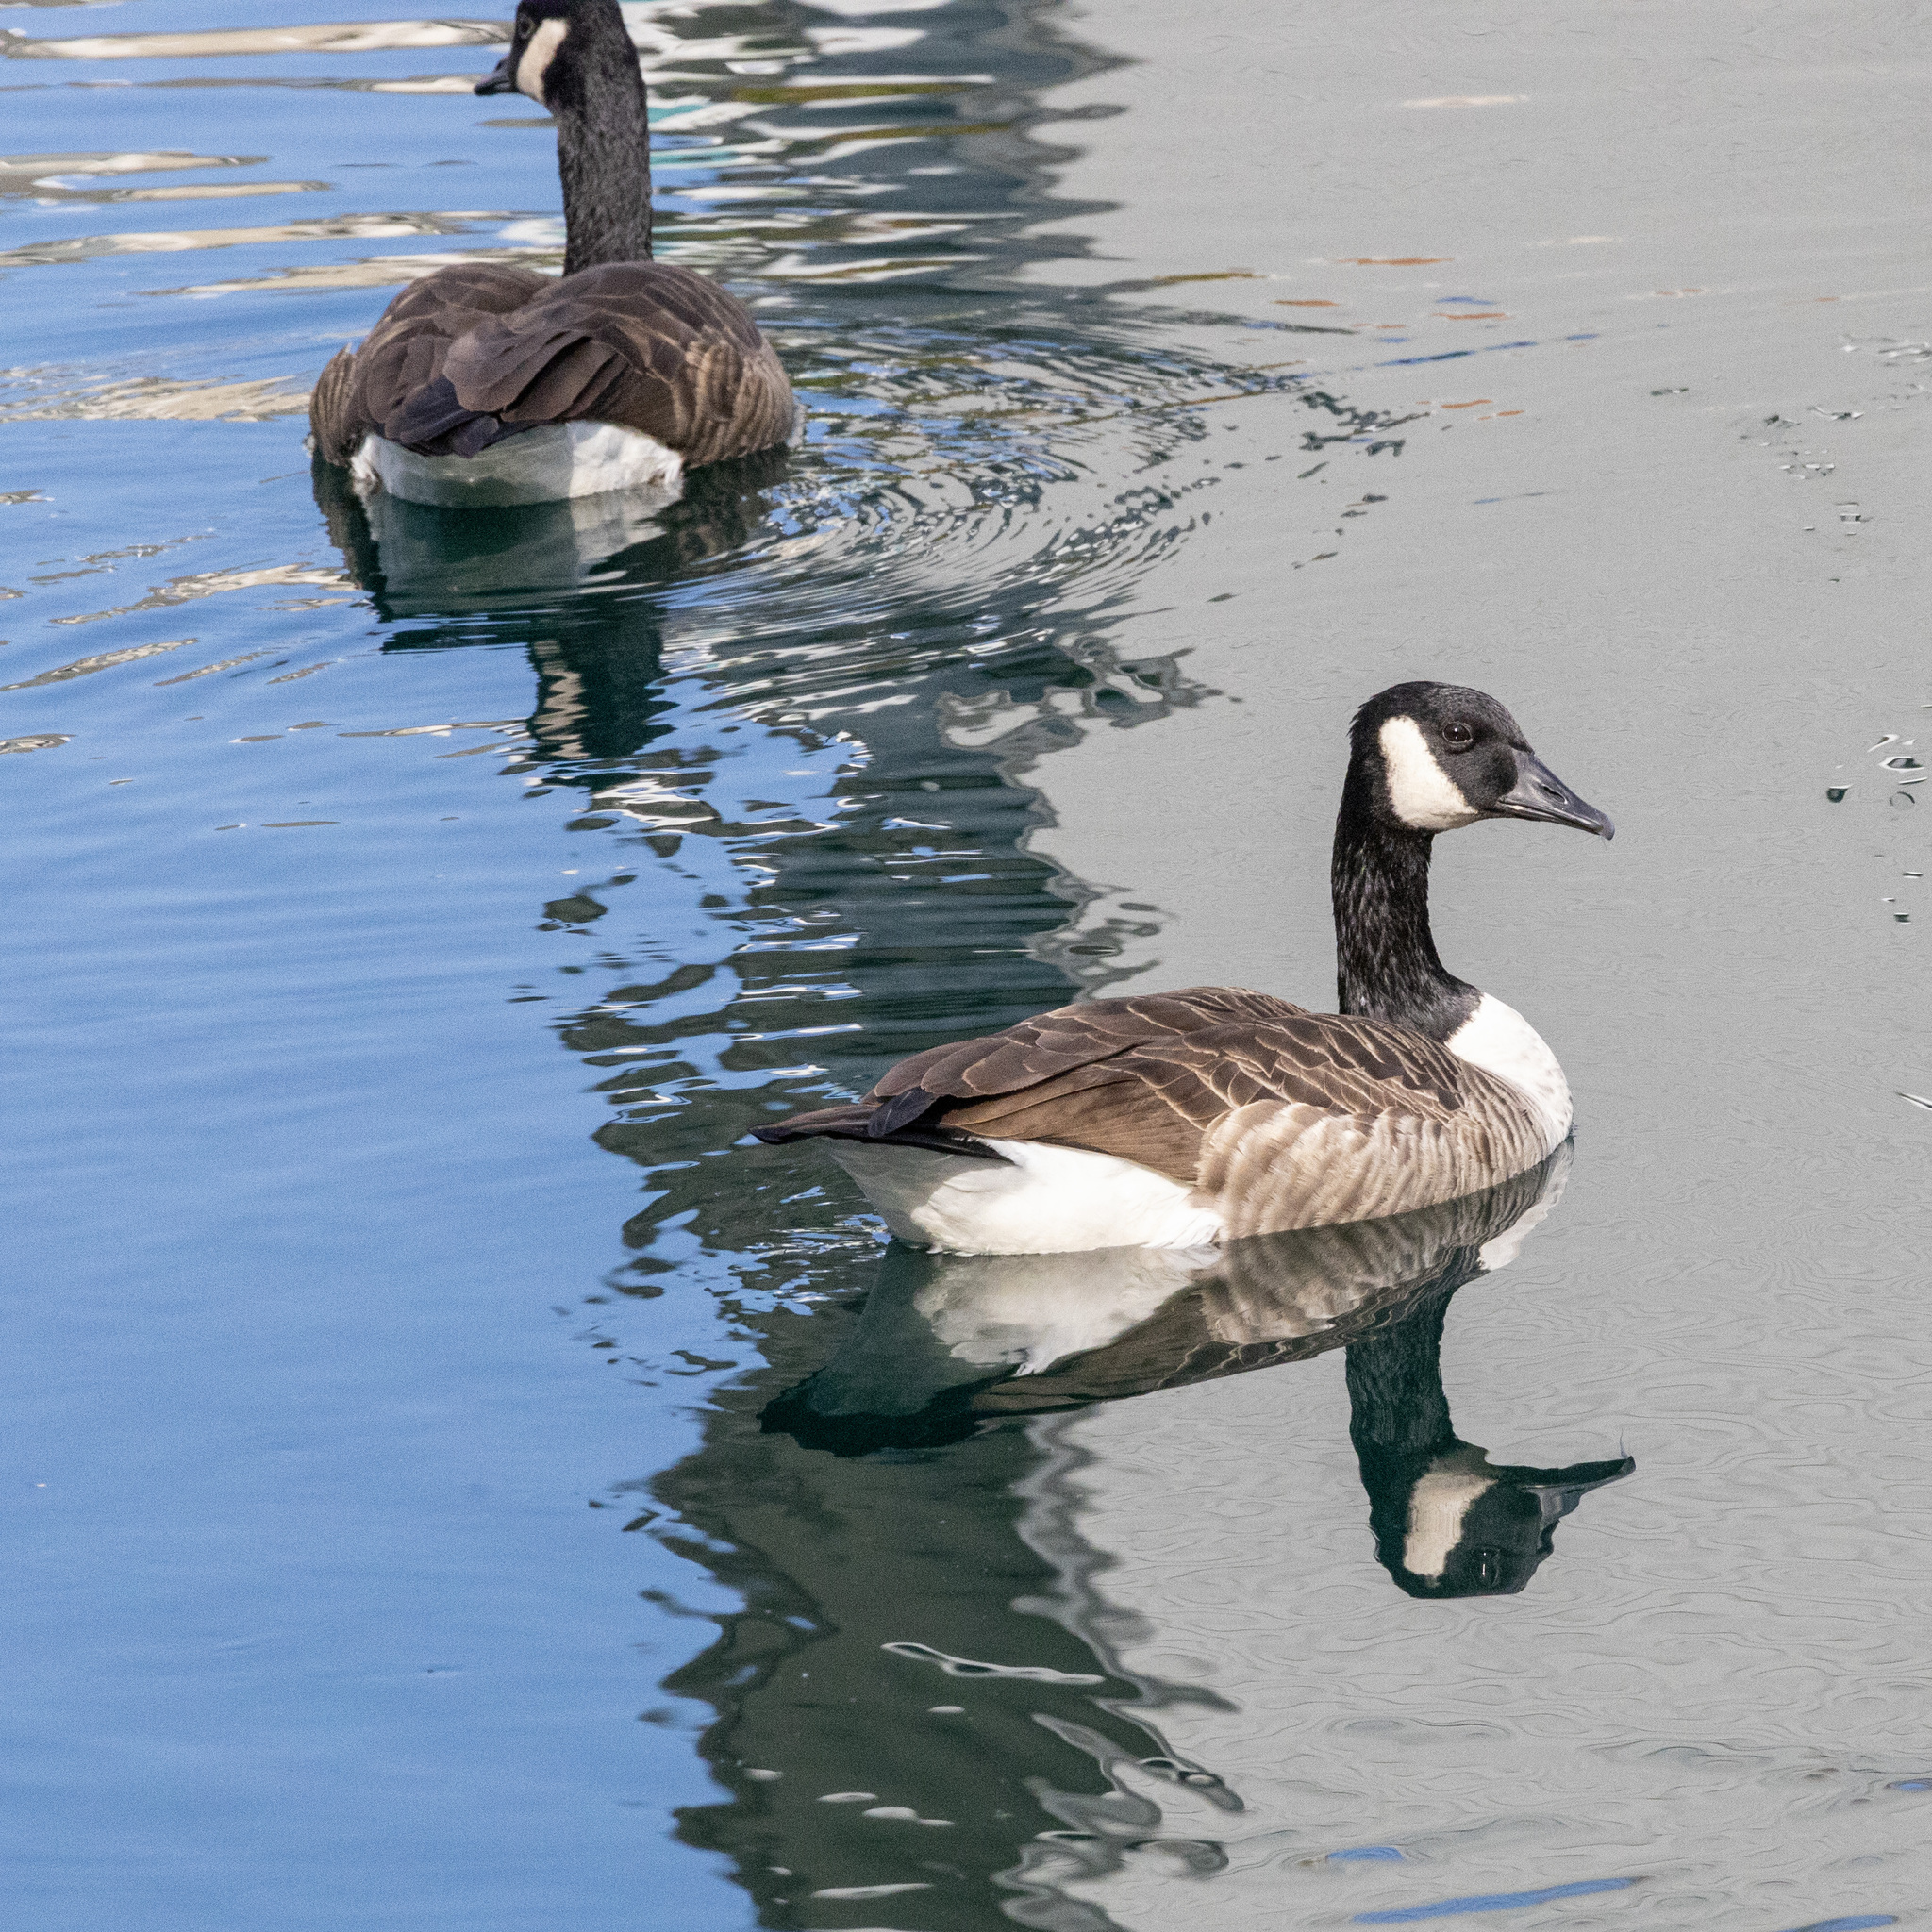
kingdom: Animalia
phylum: Chordata
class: Aves
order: Anseriformes
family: Anatidae
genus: Branta
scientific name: Branta canadensis
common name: Canada goose
